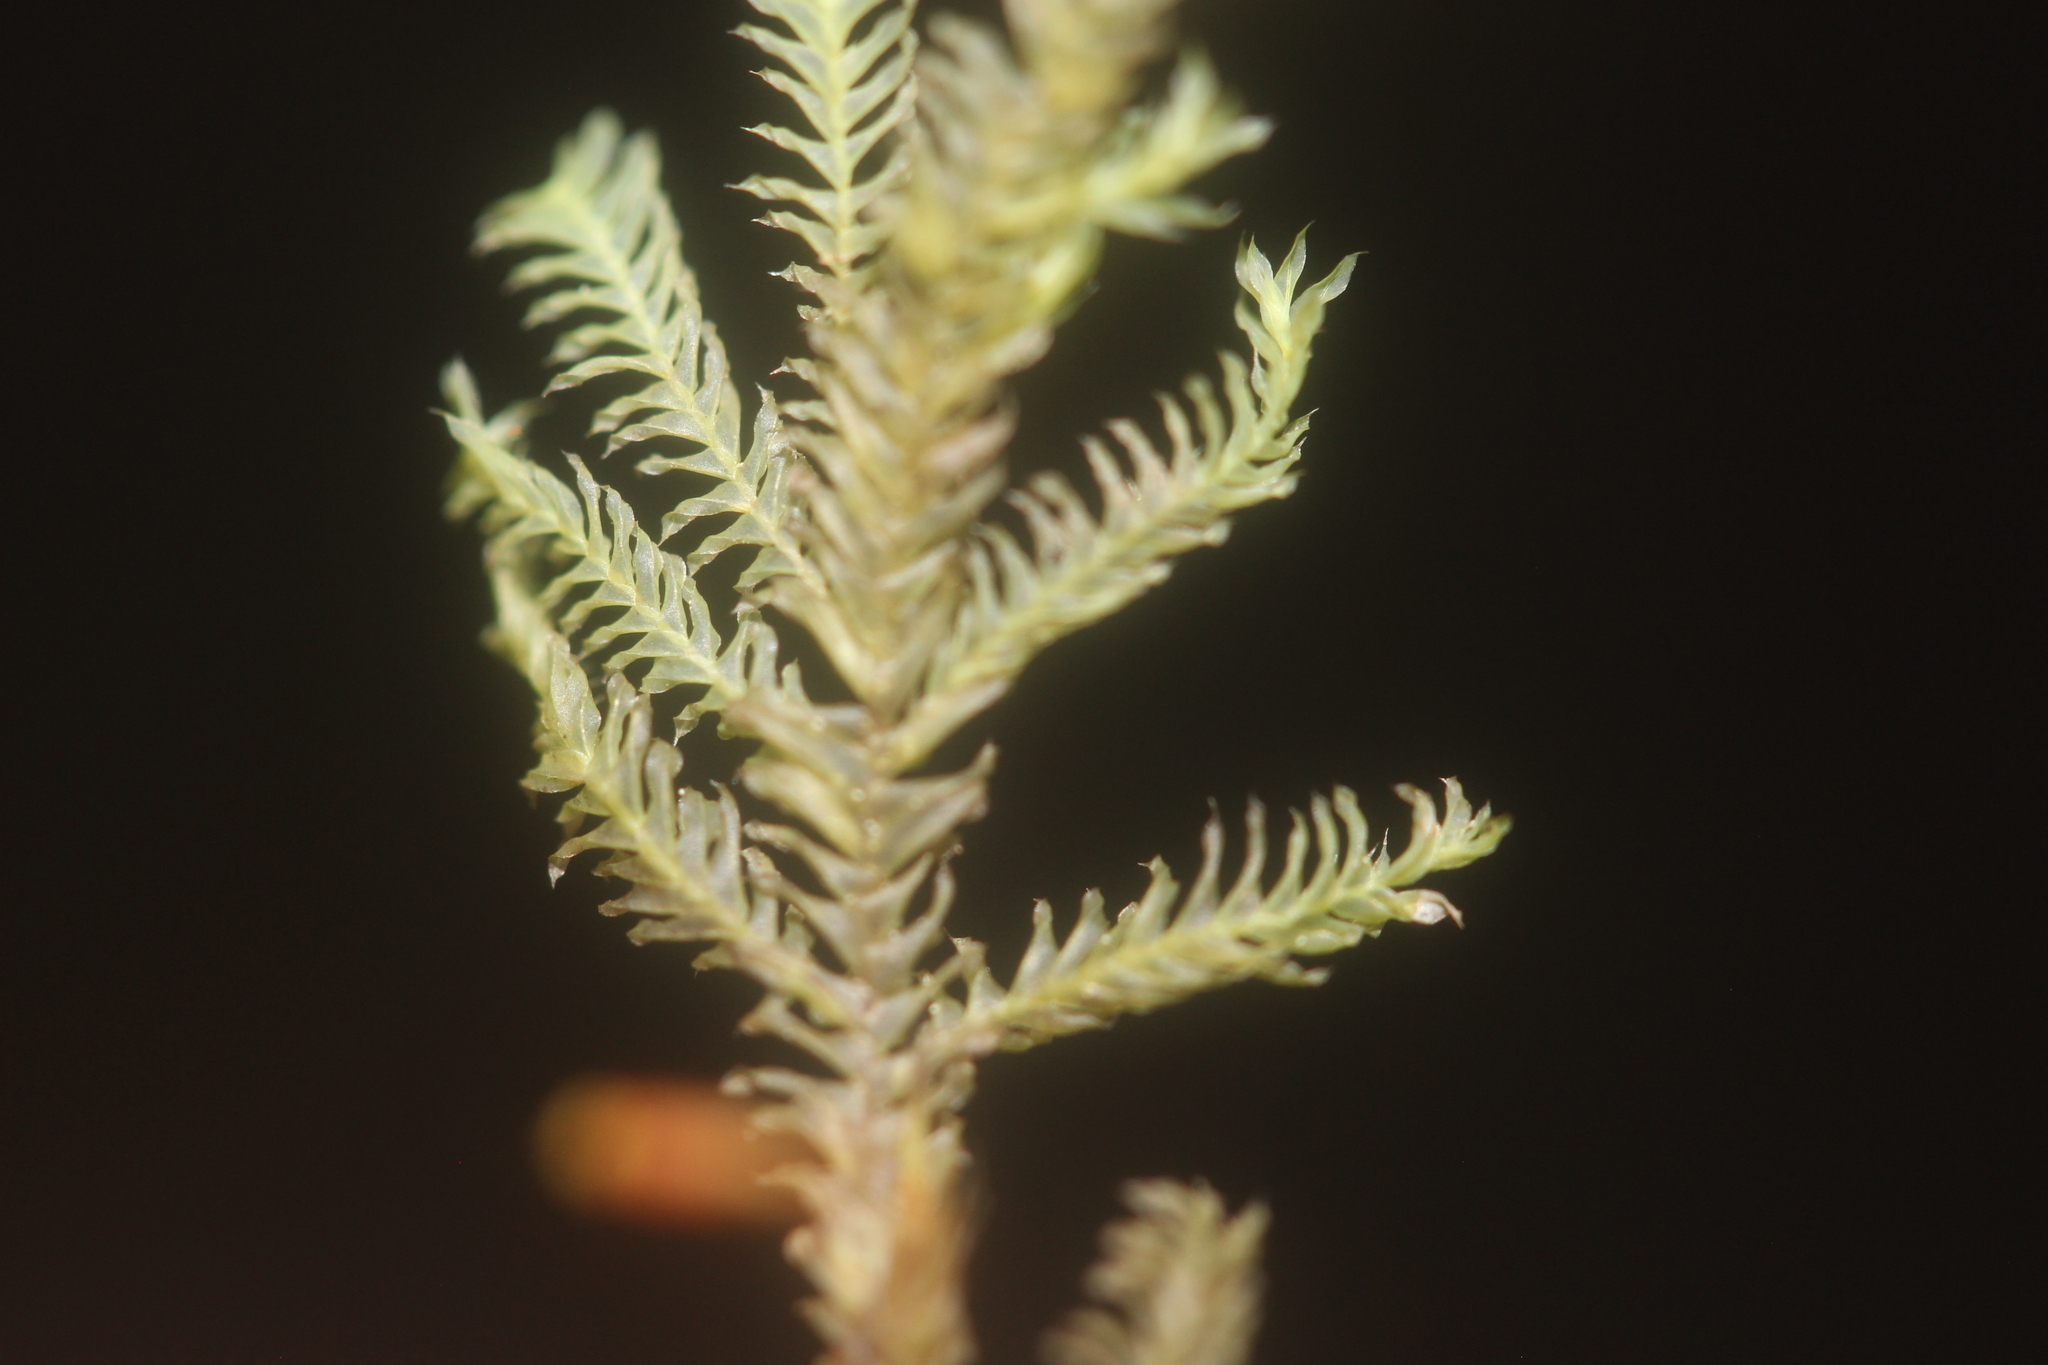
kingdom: Plantae
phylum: Bryophyta
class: Bryopsida
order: Hypopterygiales
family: Hypopterygiaceae
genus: Lopidium
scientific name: Lopidium concinnum
